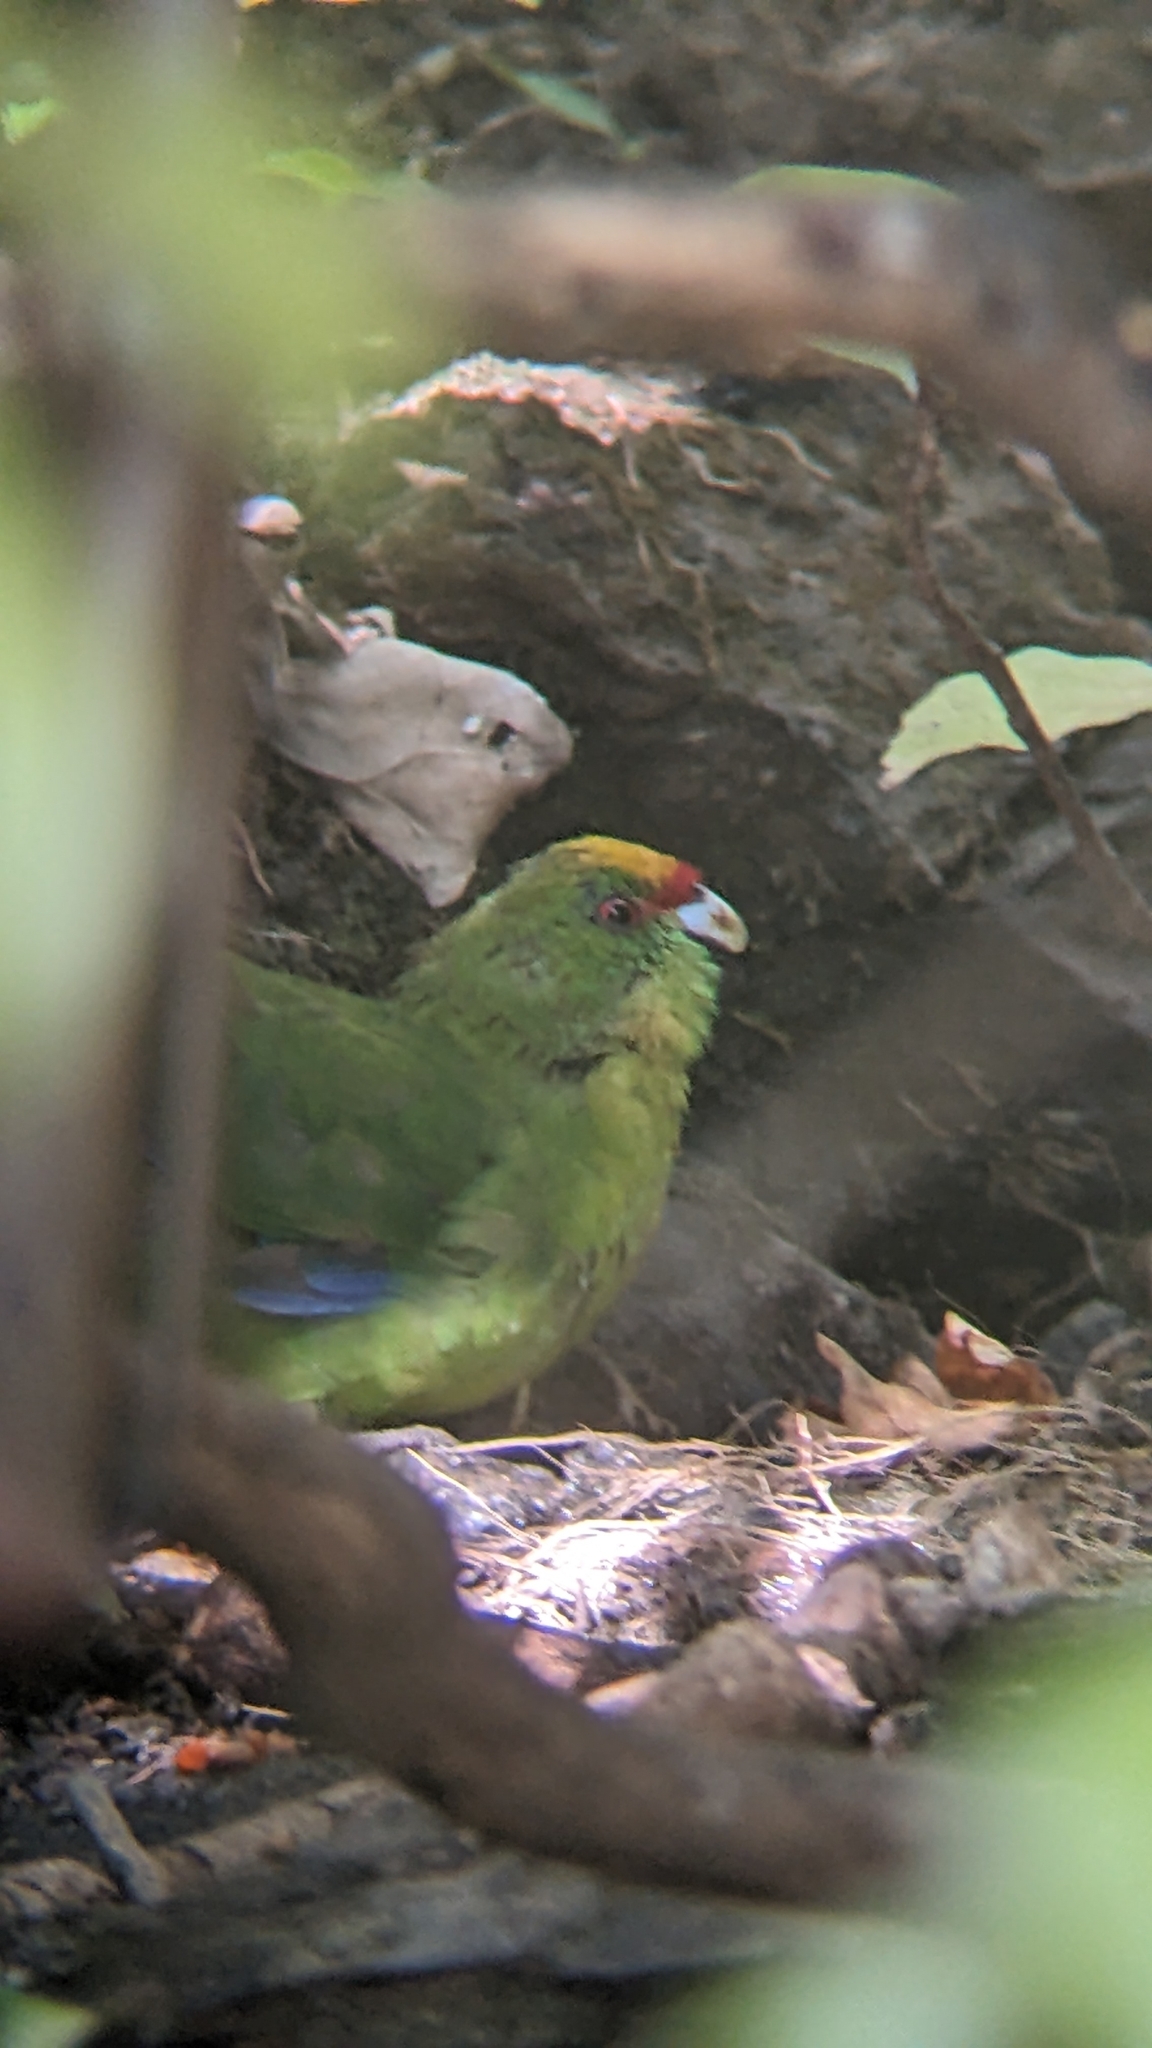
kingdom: Animalia
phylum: Chordata
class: Aves
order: Psittaciformes
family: Psittacidae
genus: Cyanoramphus
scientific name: Cyanoramphus auriceps
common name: Yellow-crowned parakeet
